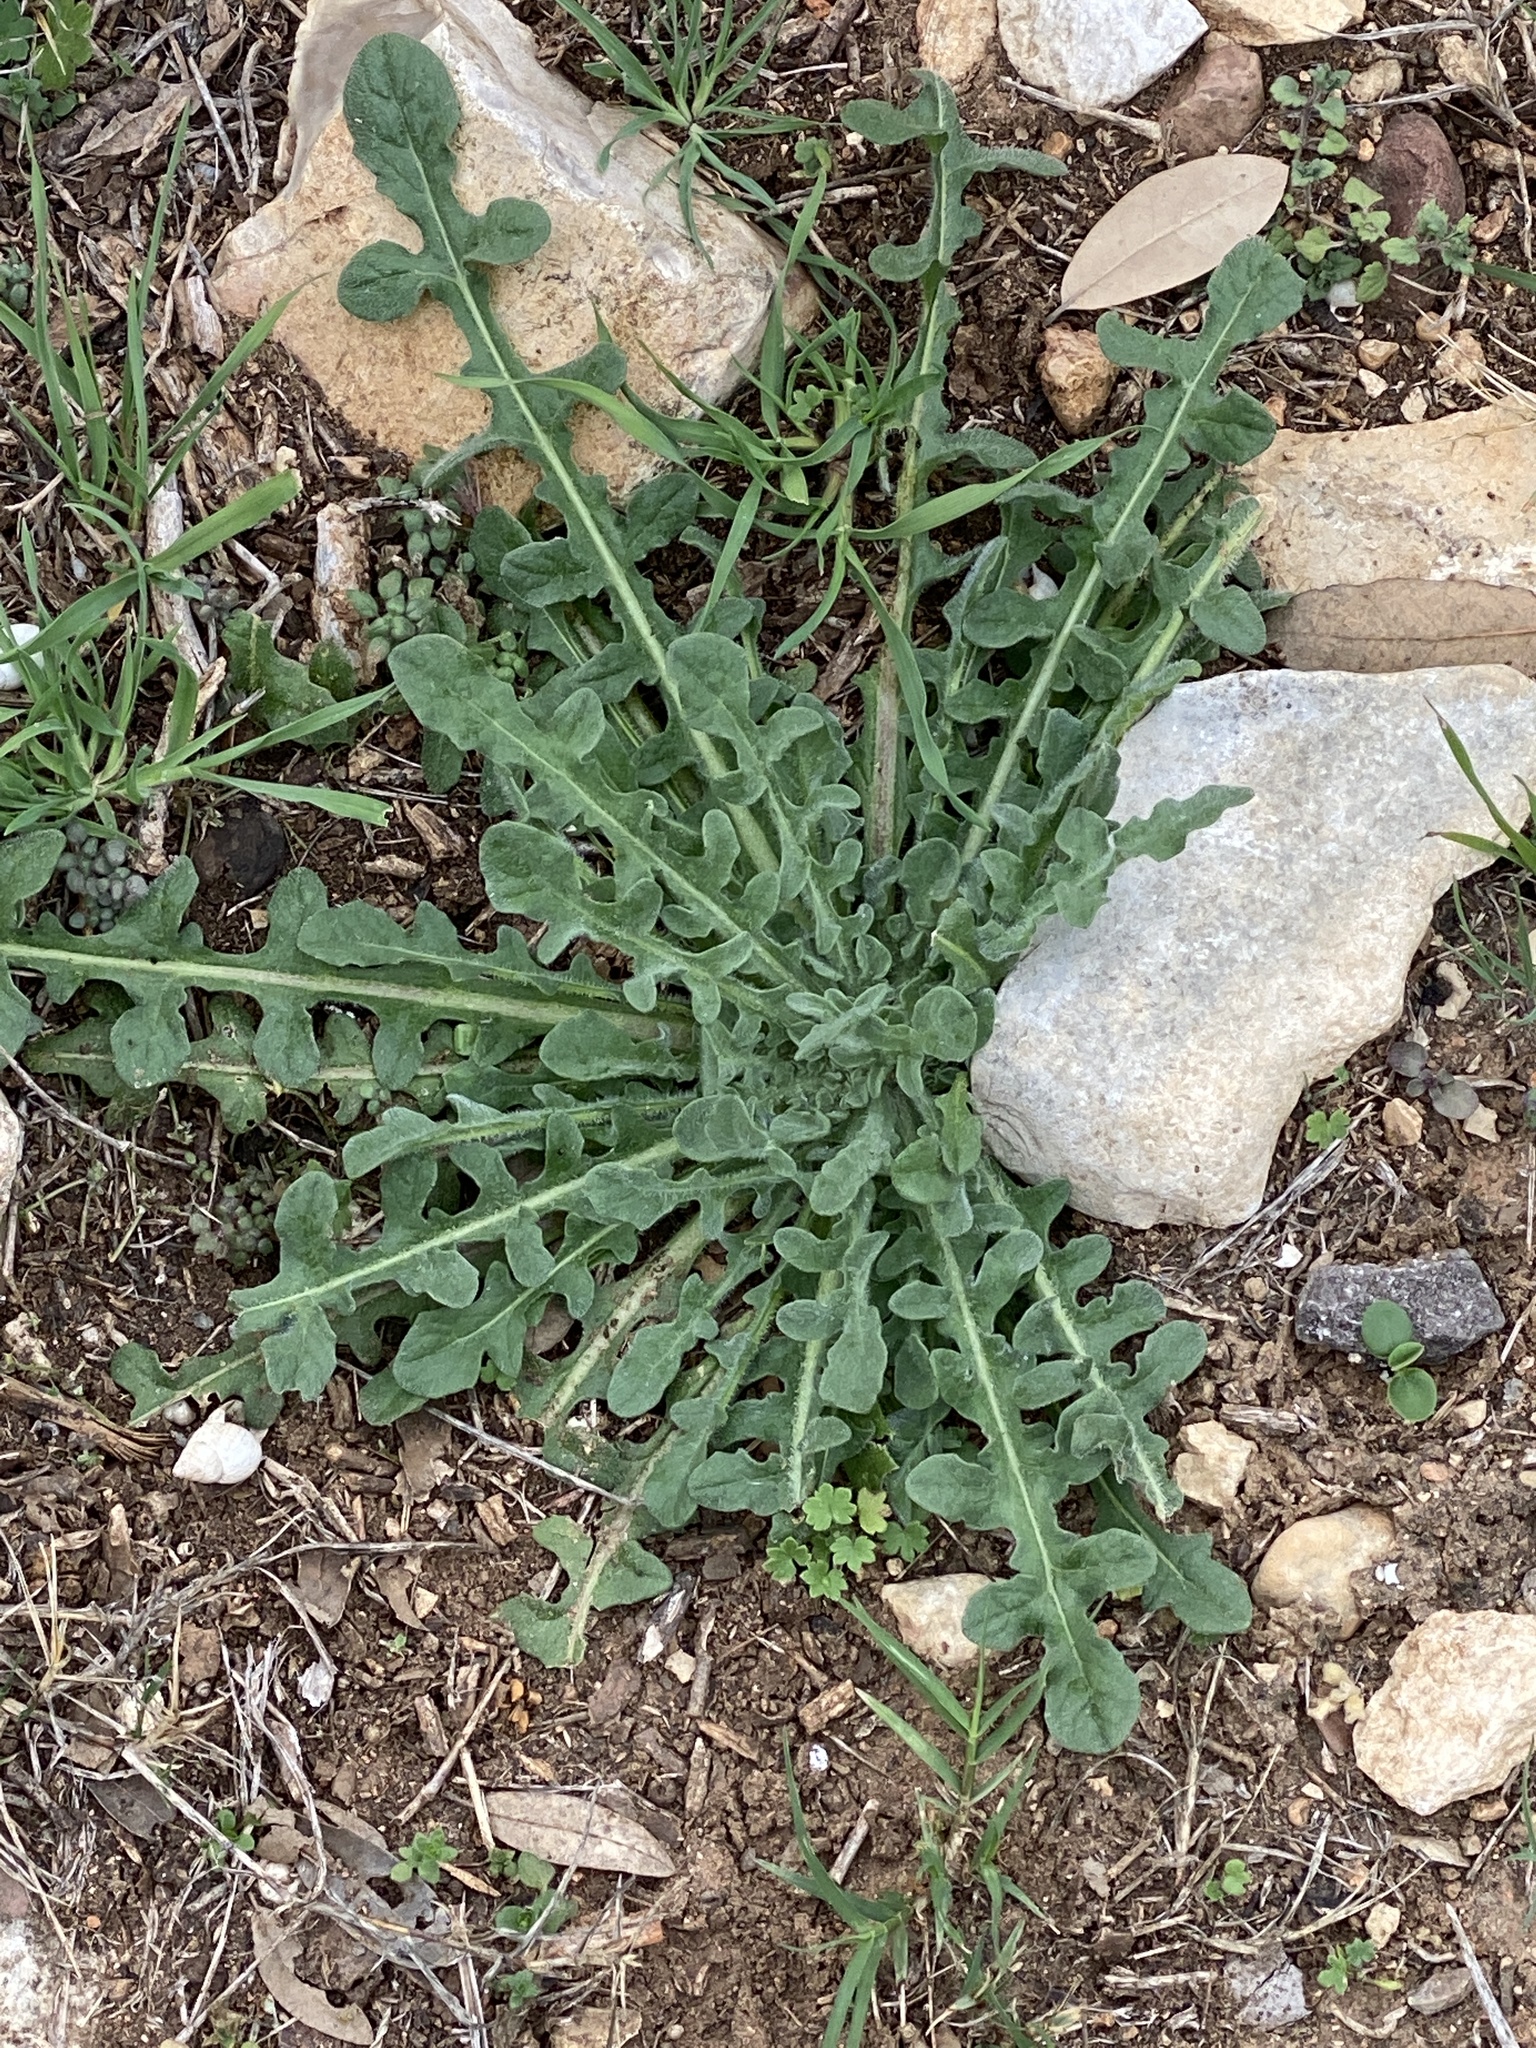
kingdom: Plantae
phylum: Tracheophyta
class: Magnoliopsida
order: Asterales
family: Asteraceae
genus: Centaurea
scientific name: Centaurea melitensis
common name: Maltese star-thistle
